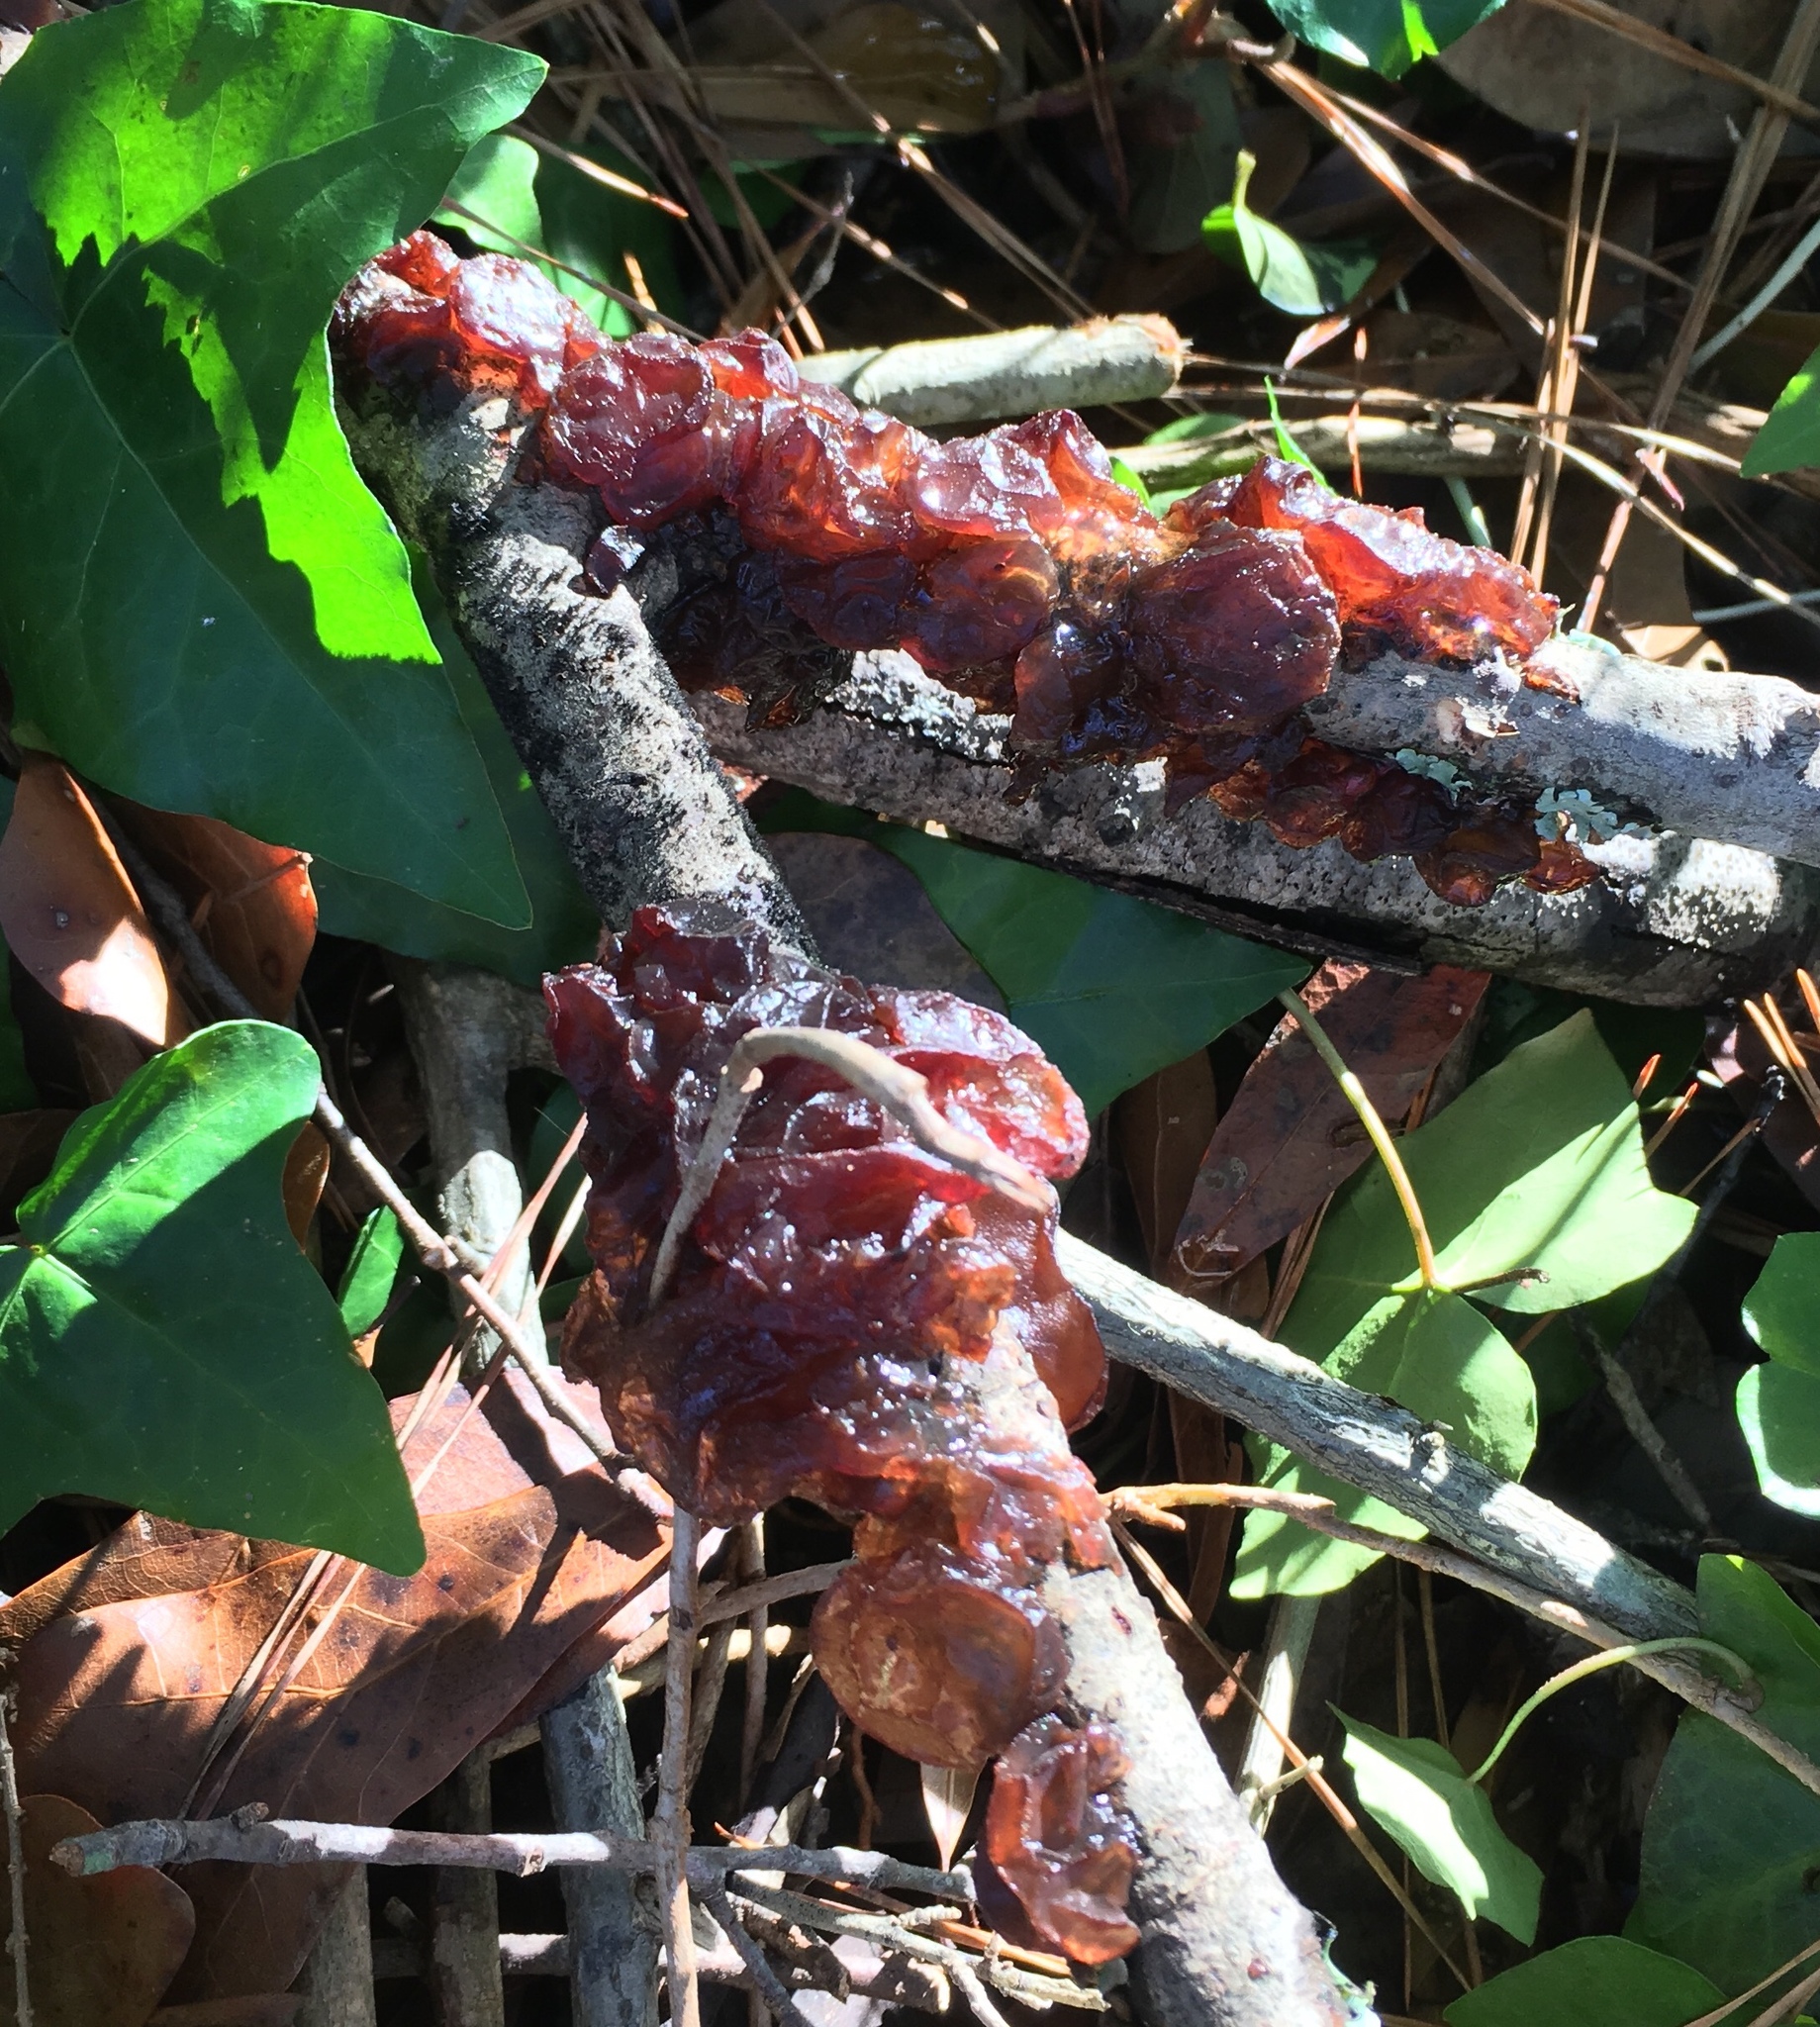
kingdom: Fungi
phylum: Basidiomycota
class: Agaricomycetes
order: Auriculariales
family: Auriculariaceae
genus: Exidia
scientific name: Exidia
